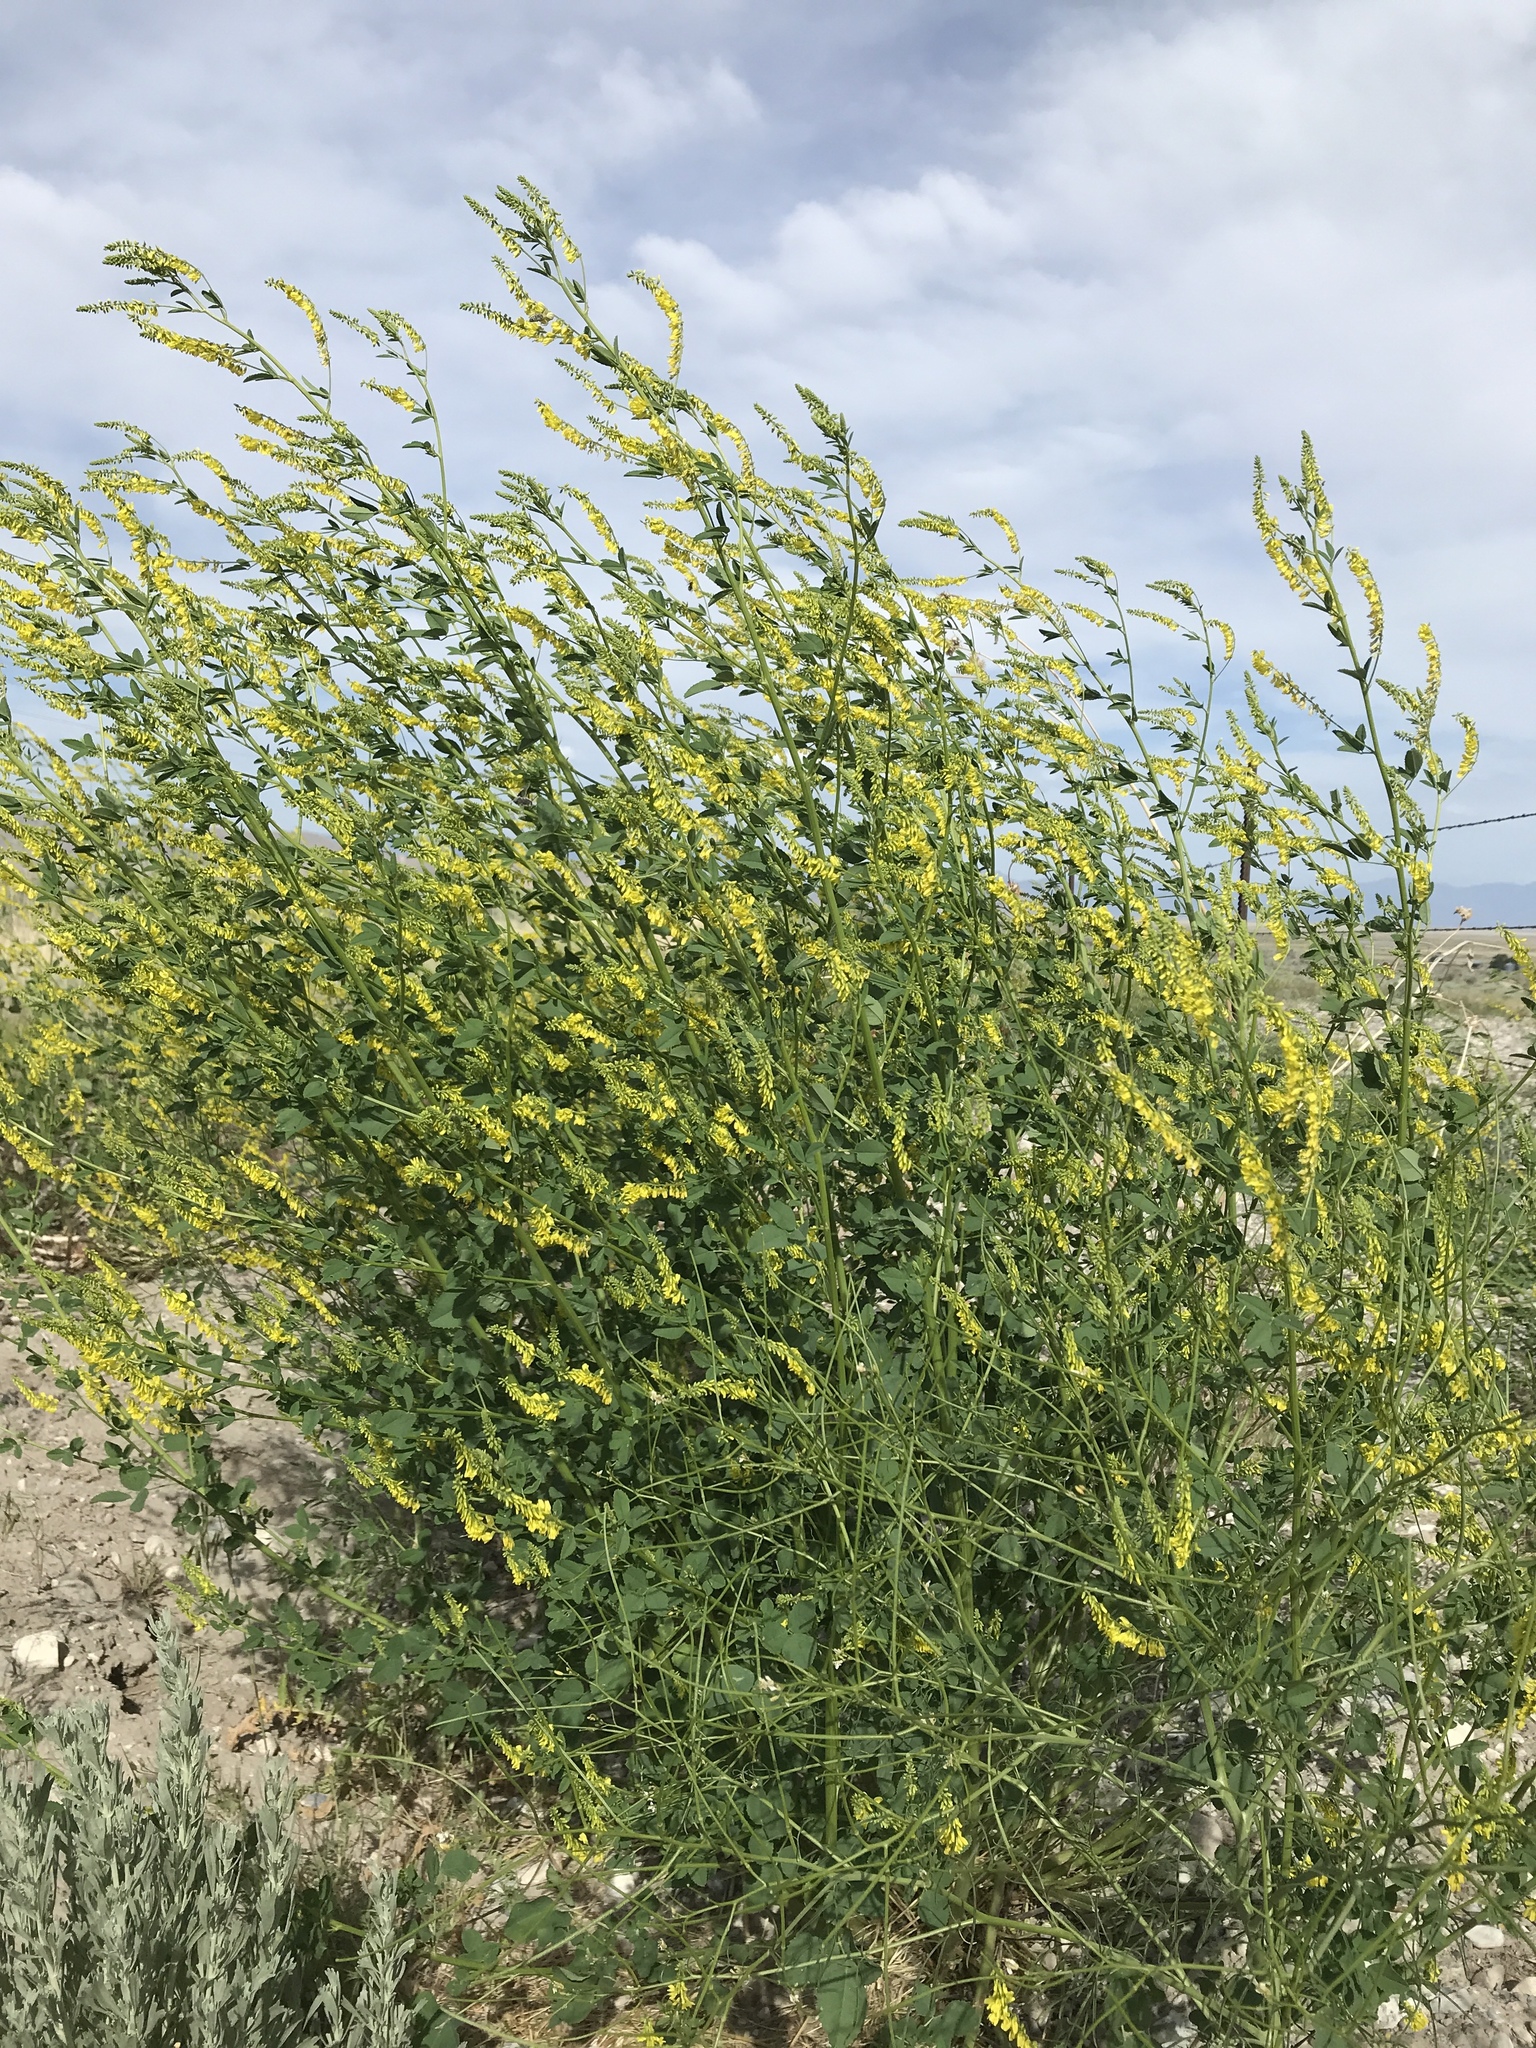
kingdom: Plantae
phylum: Tracheophyta
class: Magnoliopsida
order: Fabales
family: Fabaceae
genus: Melilotus
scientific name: Melilotus officinalis
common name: Sweetclover
